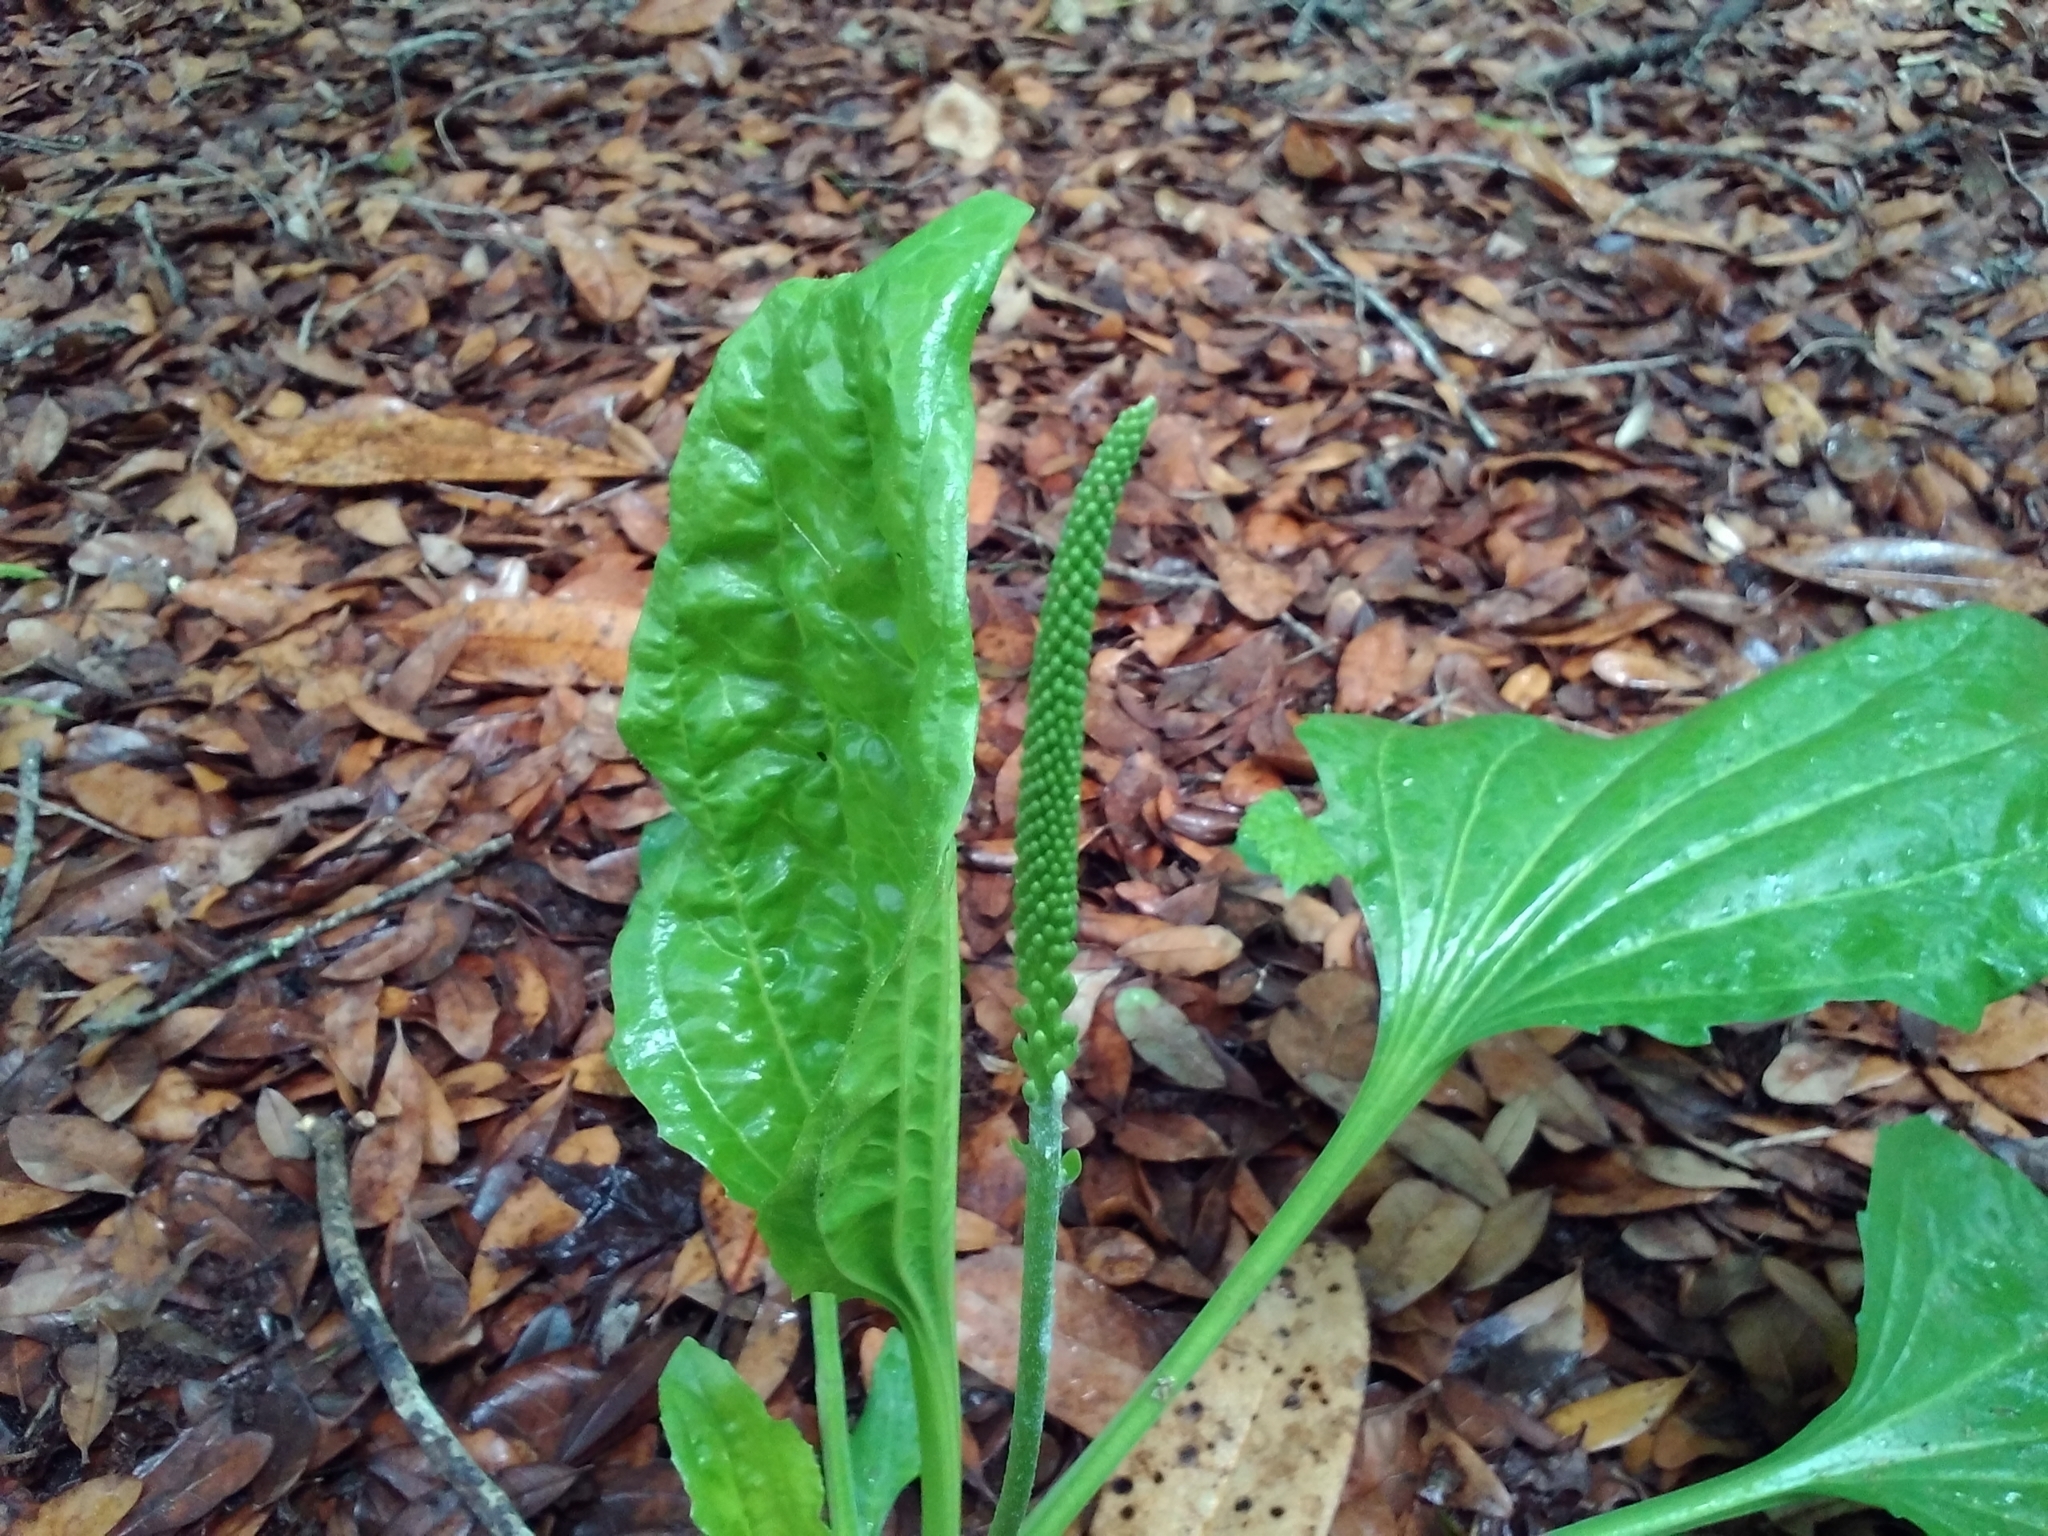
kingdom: Plantae
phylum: Tracheophyta
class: Magnoliopsida
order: Lamiales
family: Plantaginaceae
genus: Plantago
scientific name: Plantago major
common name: Common plantain
